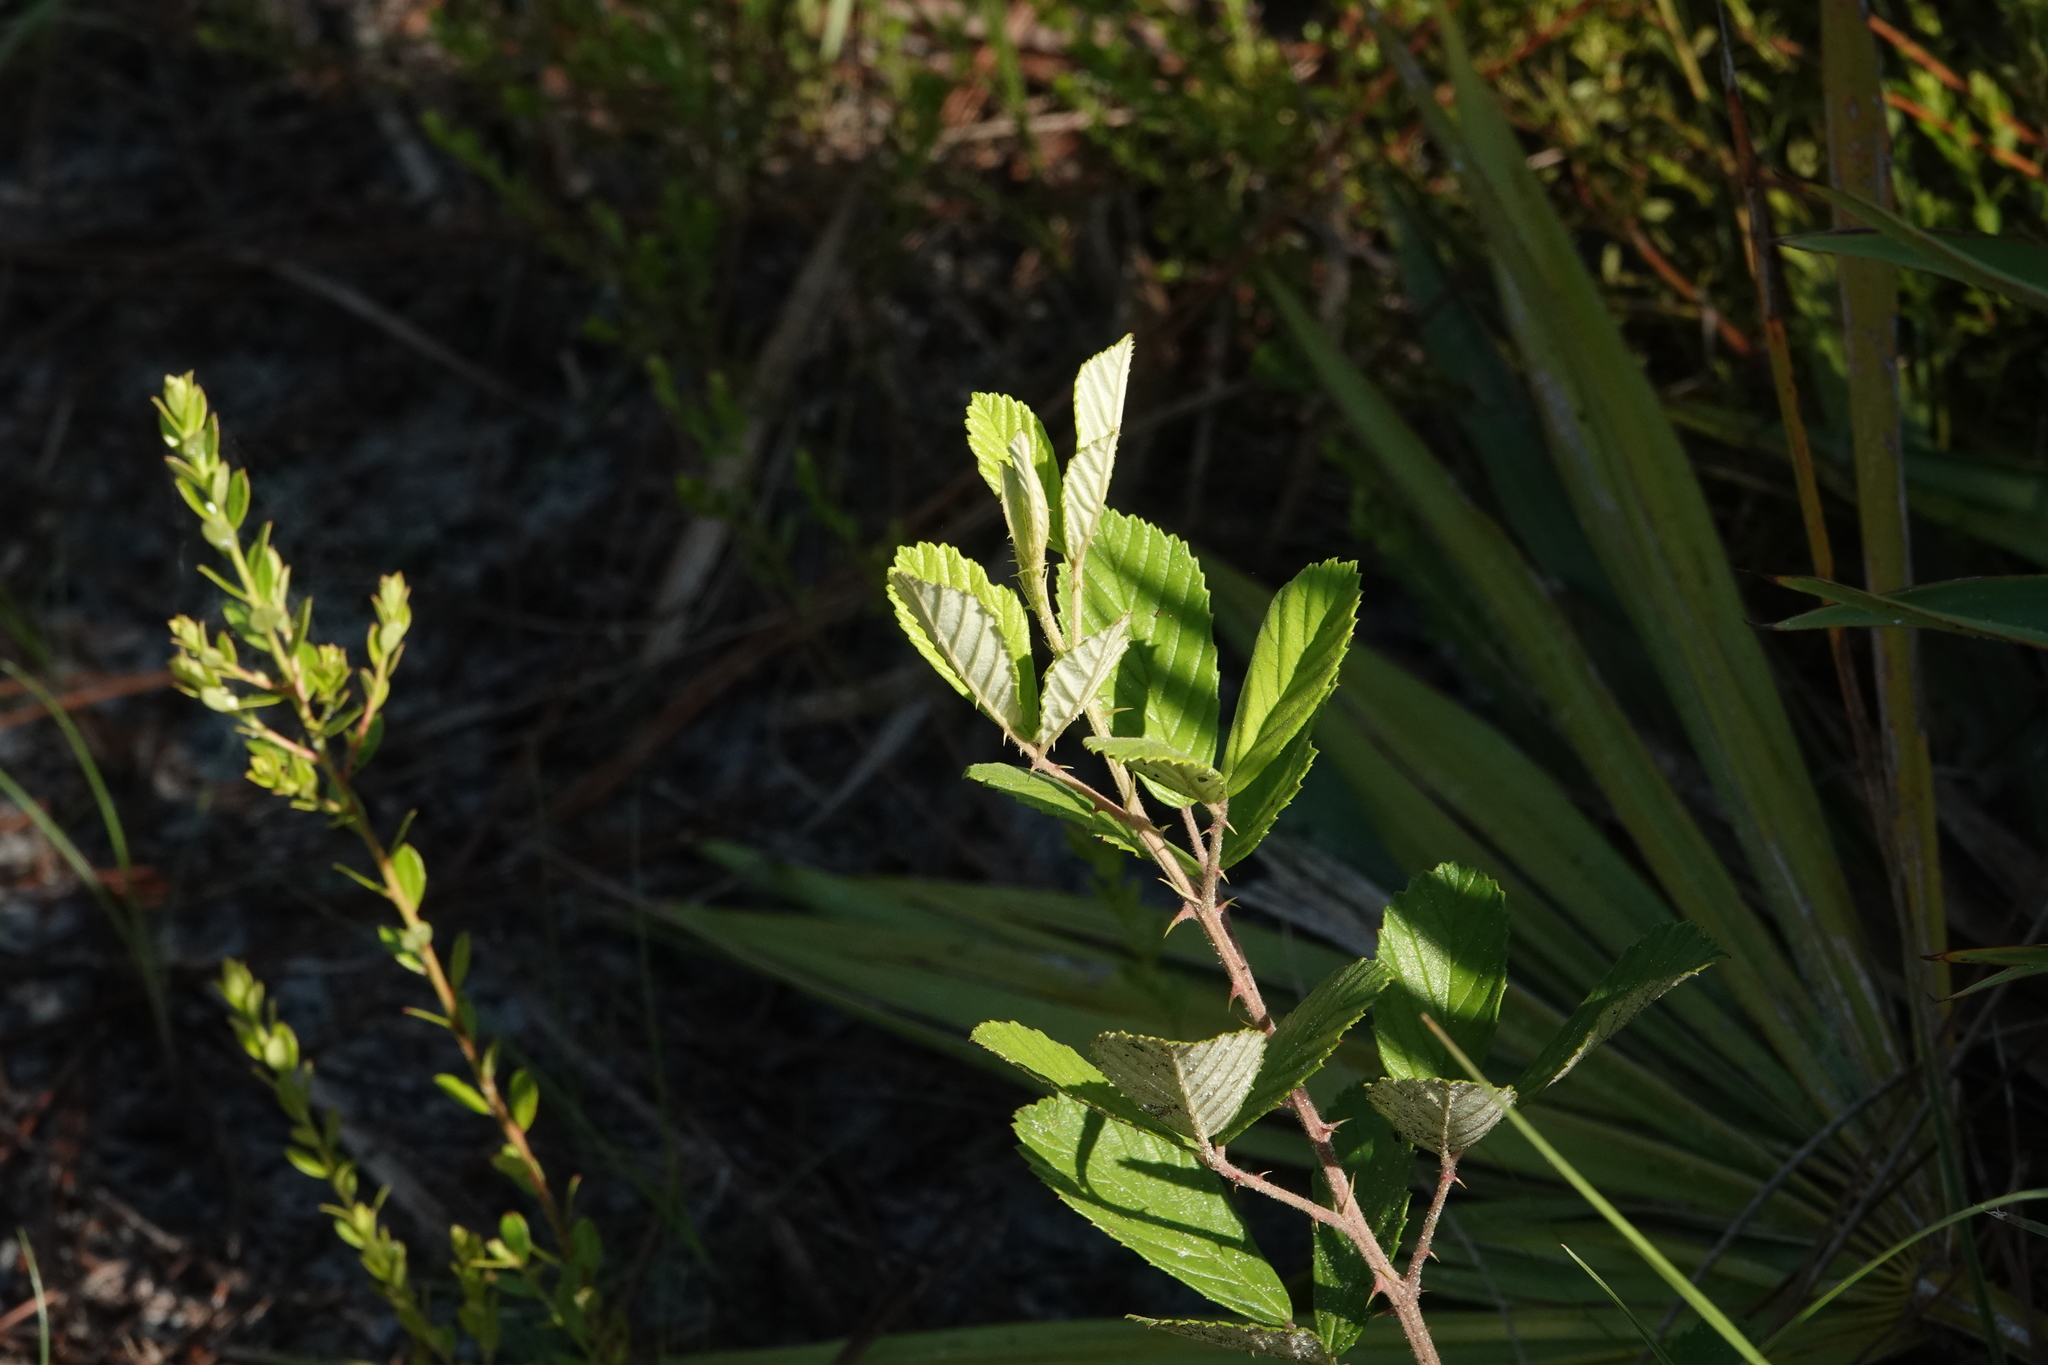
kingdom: Plantae
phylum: Tracheophyta
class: Magnoliopsida
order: Rosales
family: Rosaceae
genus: Rubus
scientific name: Rubus cuneifolius
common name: American bramble
